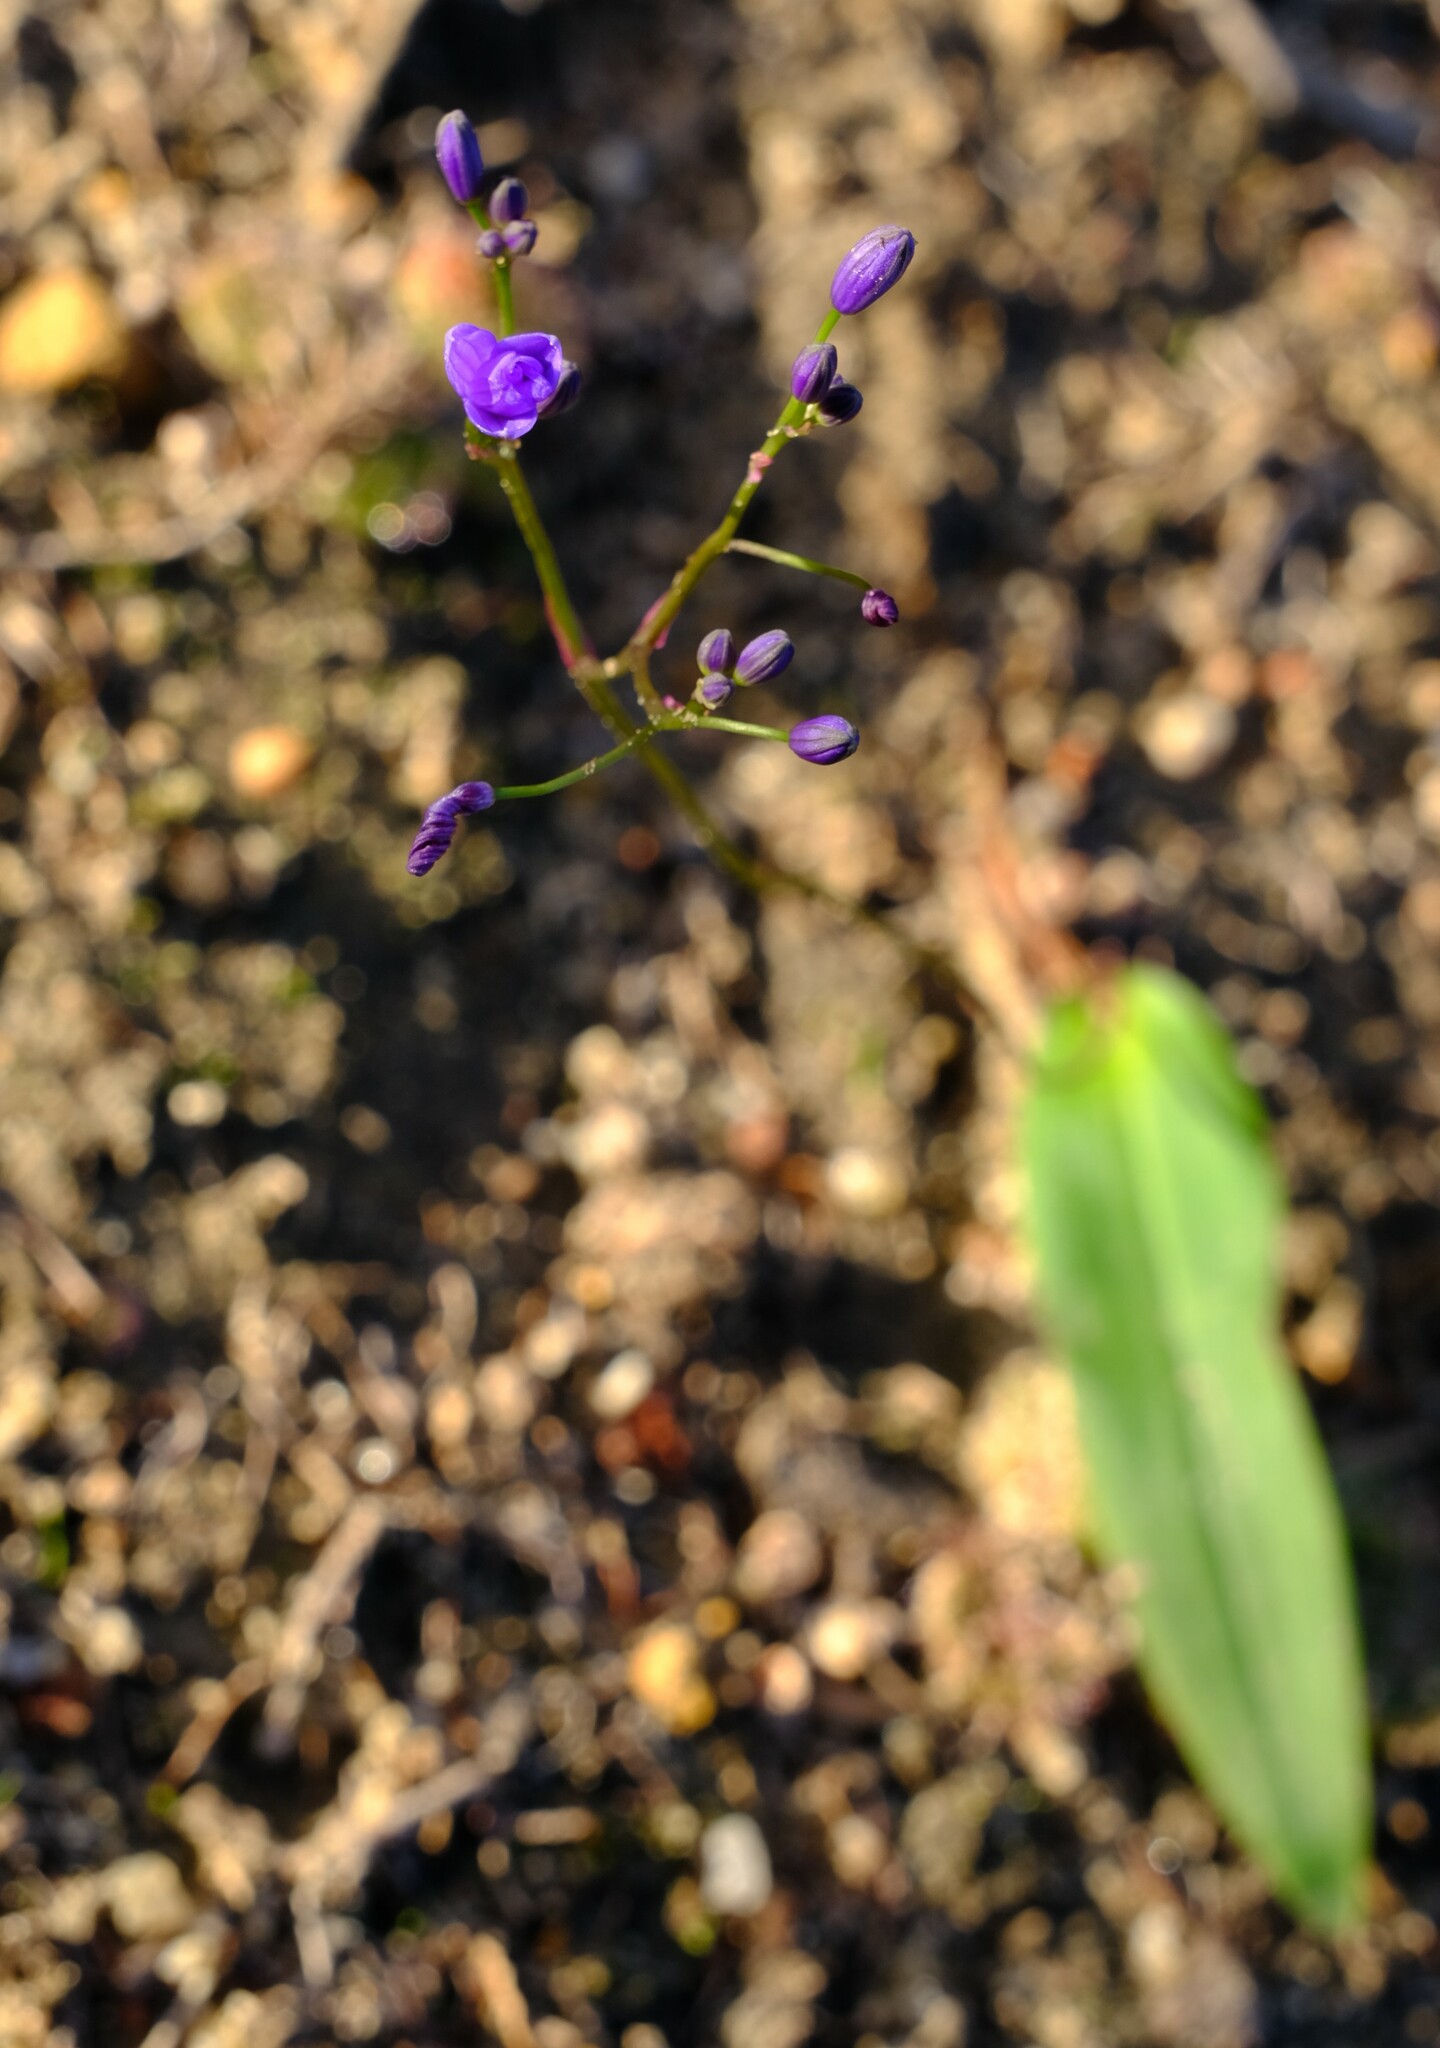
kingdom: Plantae
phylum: Tracheophyta
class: Liliopsida
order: Asparagales
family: Asphodelaceae
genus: Chamaescilla
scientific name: Chamaescilla corymbosa
